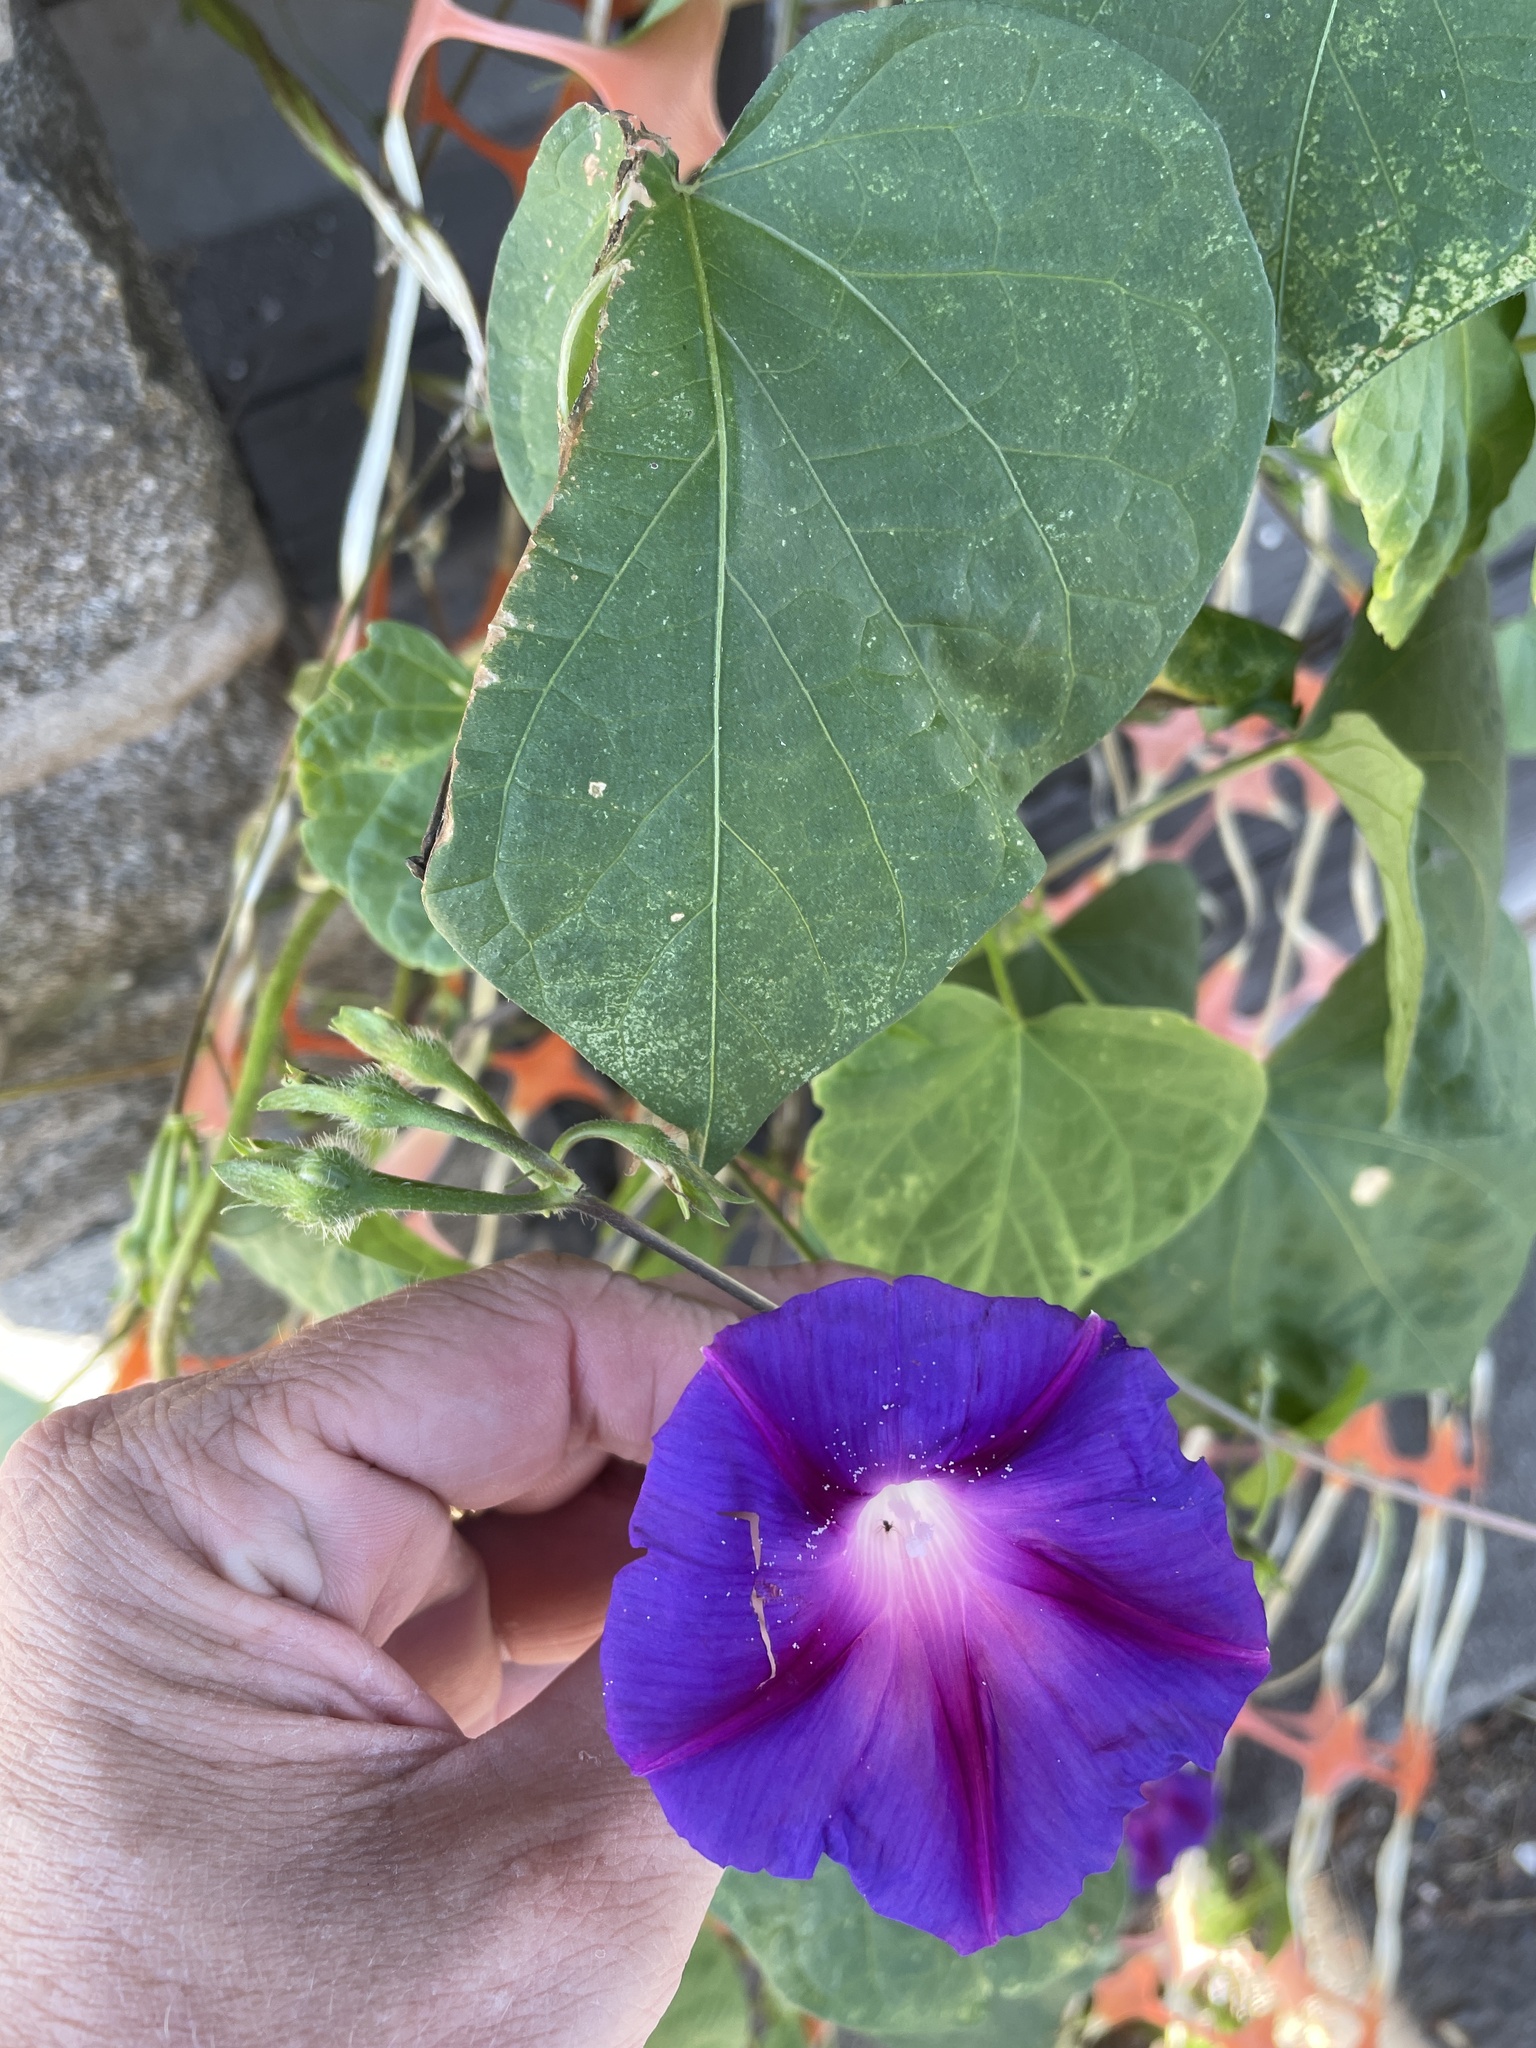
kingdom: Plantae
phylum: Tracheophyta
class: Magnoliopsida
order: Solanales
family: Convolvulaceae
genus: Ipomoea
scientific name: Ipomoea purpurea
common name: Common morning-glory
